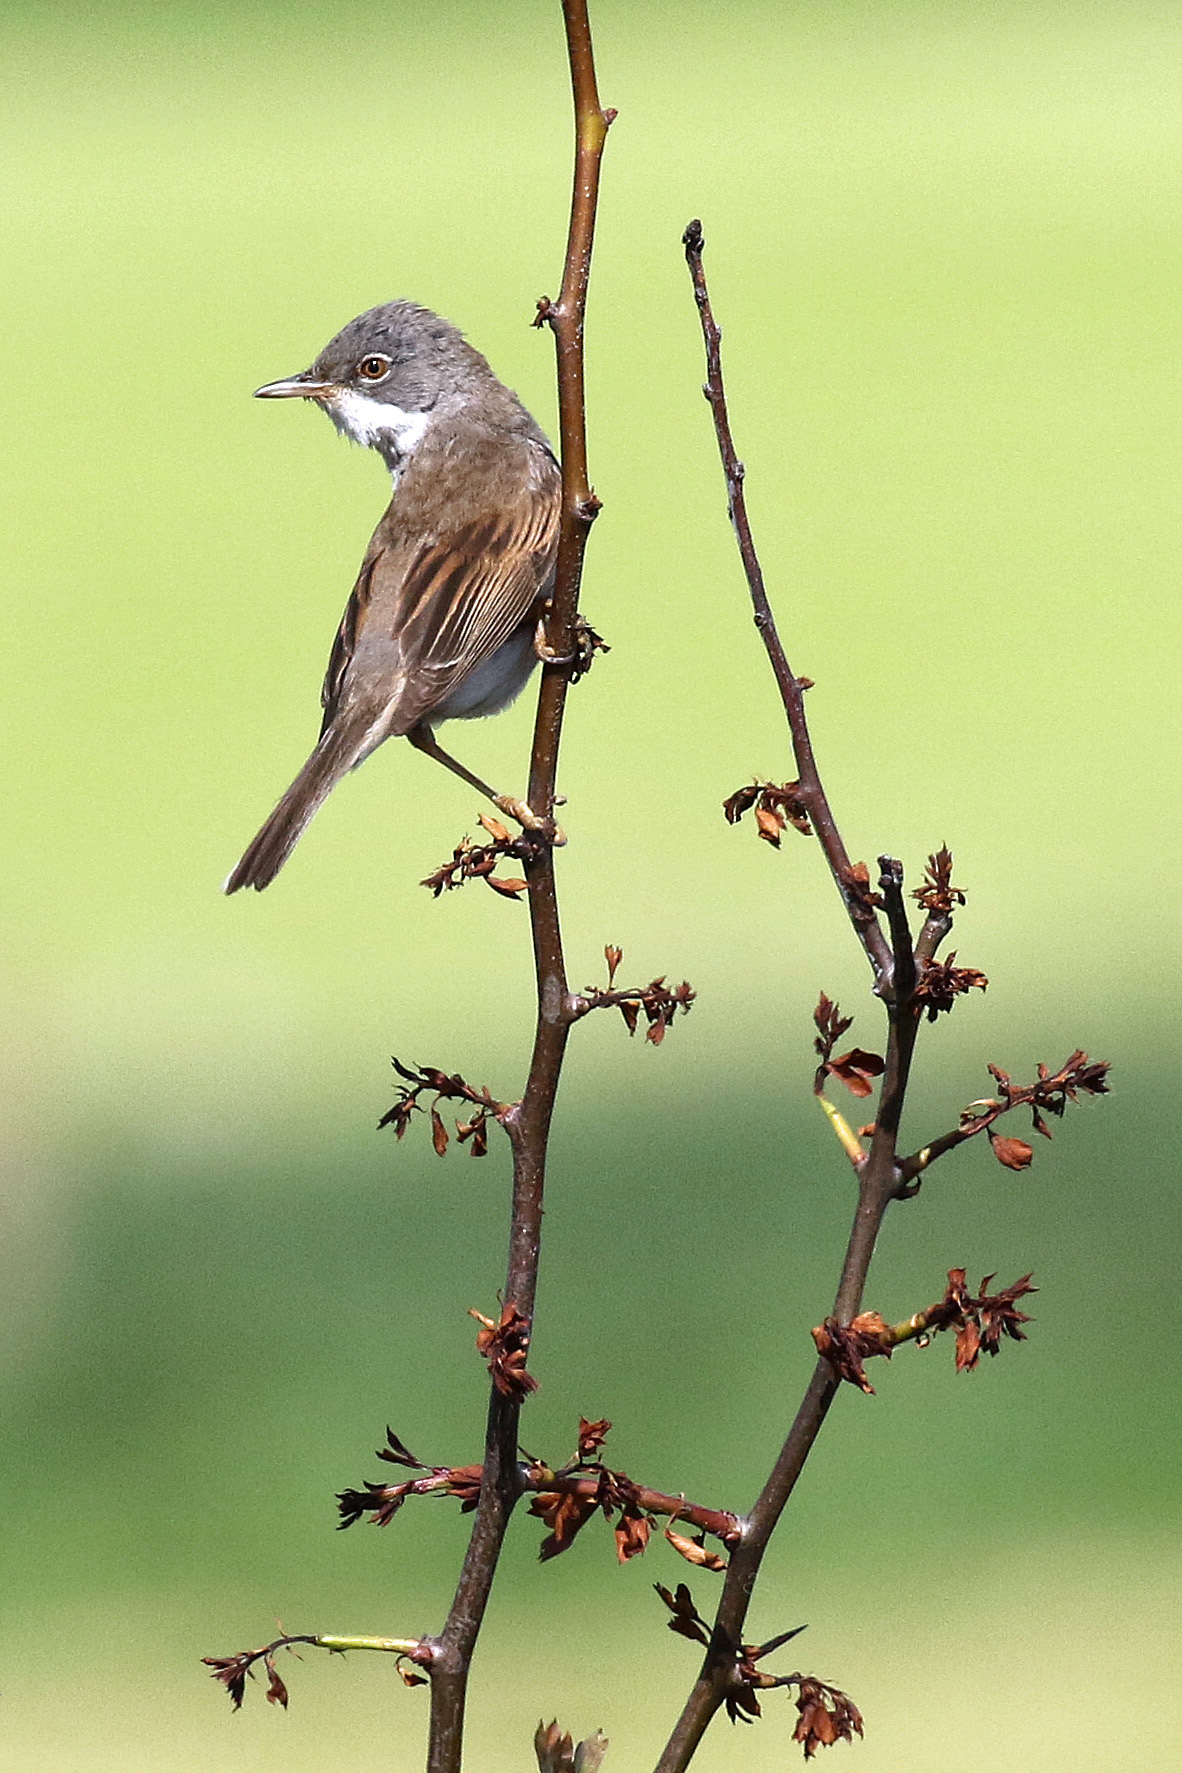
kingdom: Animalia
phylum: Chordata
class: Aves
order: Passeriformes
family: Sylviidae
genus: Sylvia
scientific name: Sylvia communis
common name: Common whitethroat
